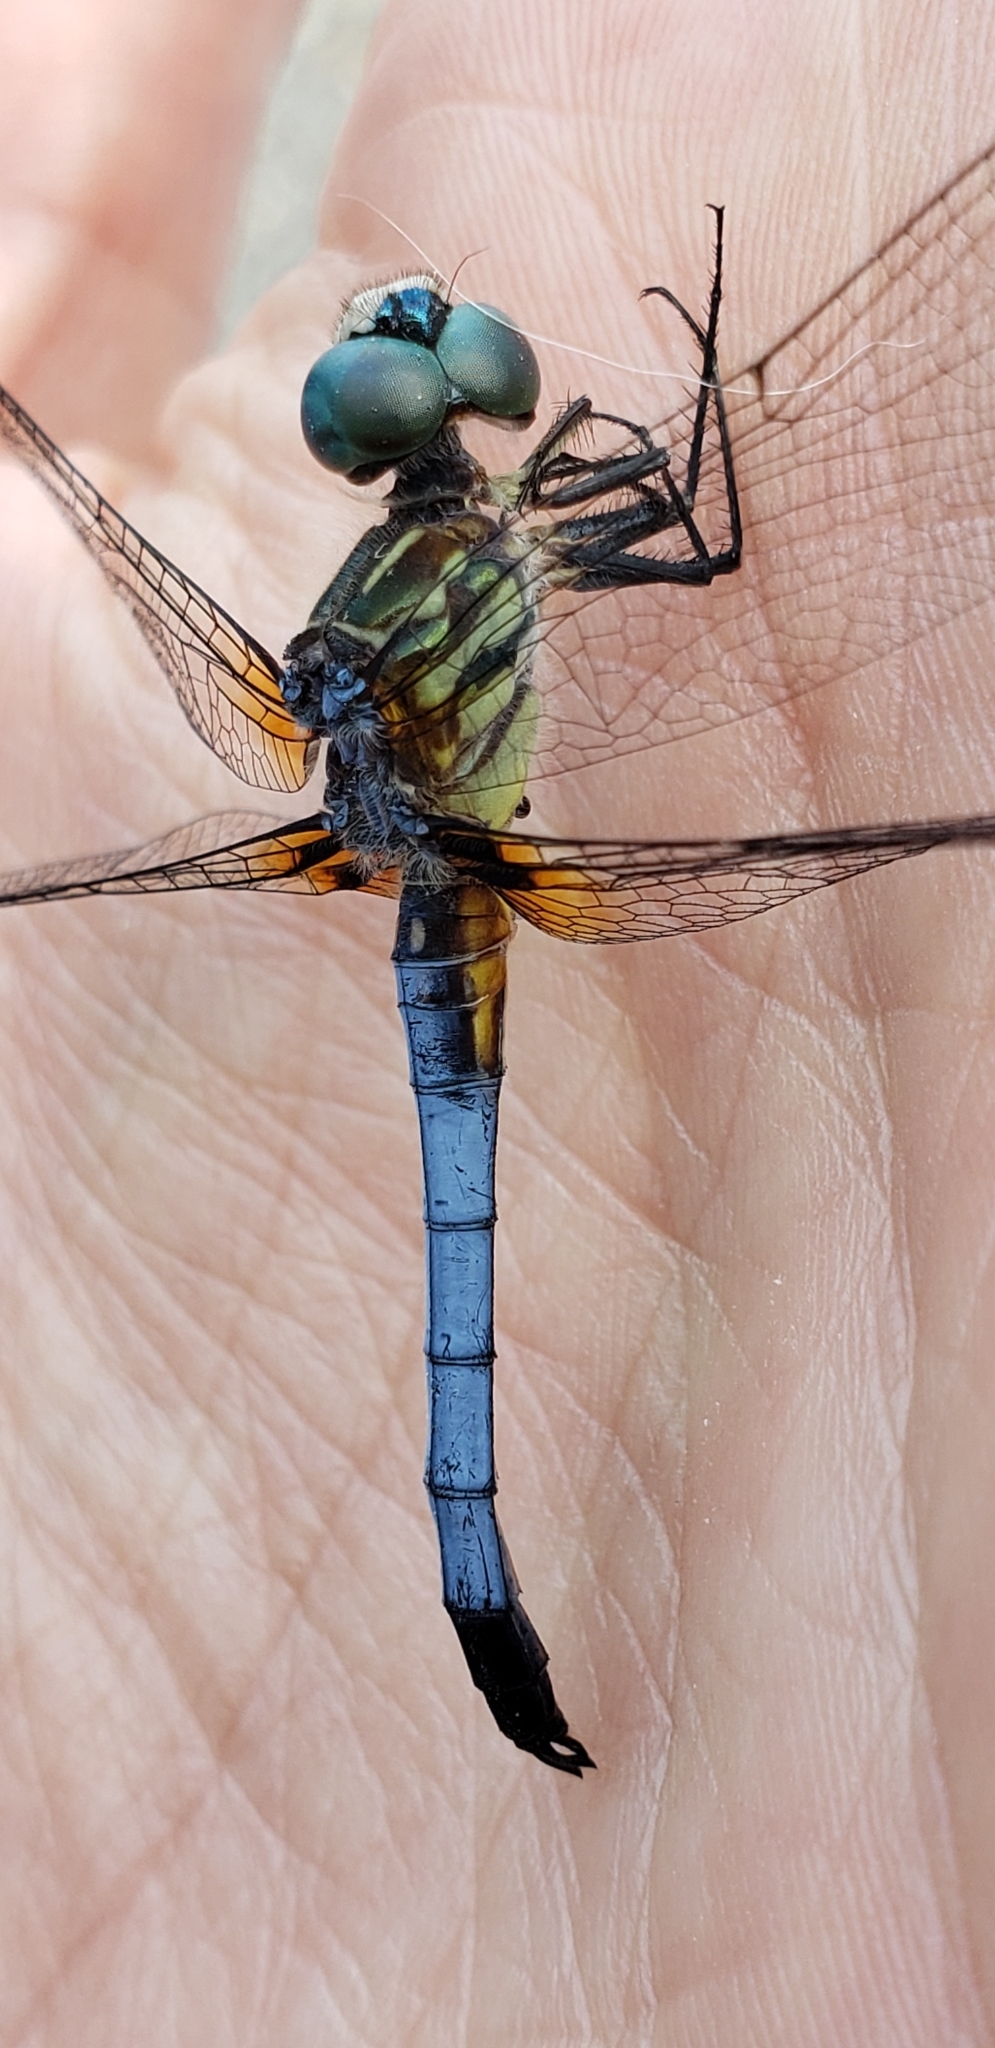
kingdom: Animalia
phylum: Arthropoda
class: Insecta
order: Odonata
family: Libellulidae
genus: Pachydiplax
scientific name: Pachydiplax longipennis
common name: Blue dasher
